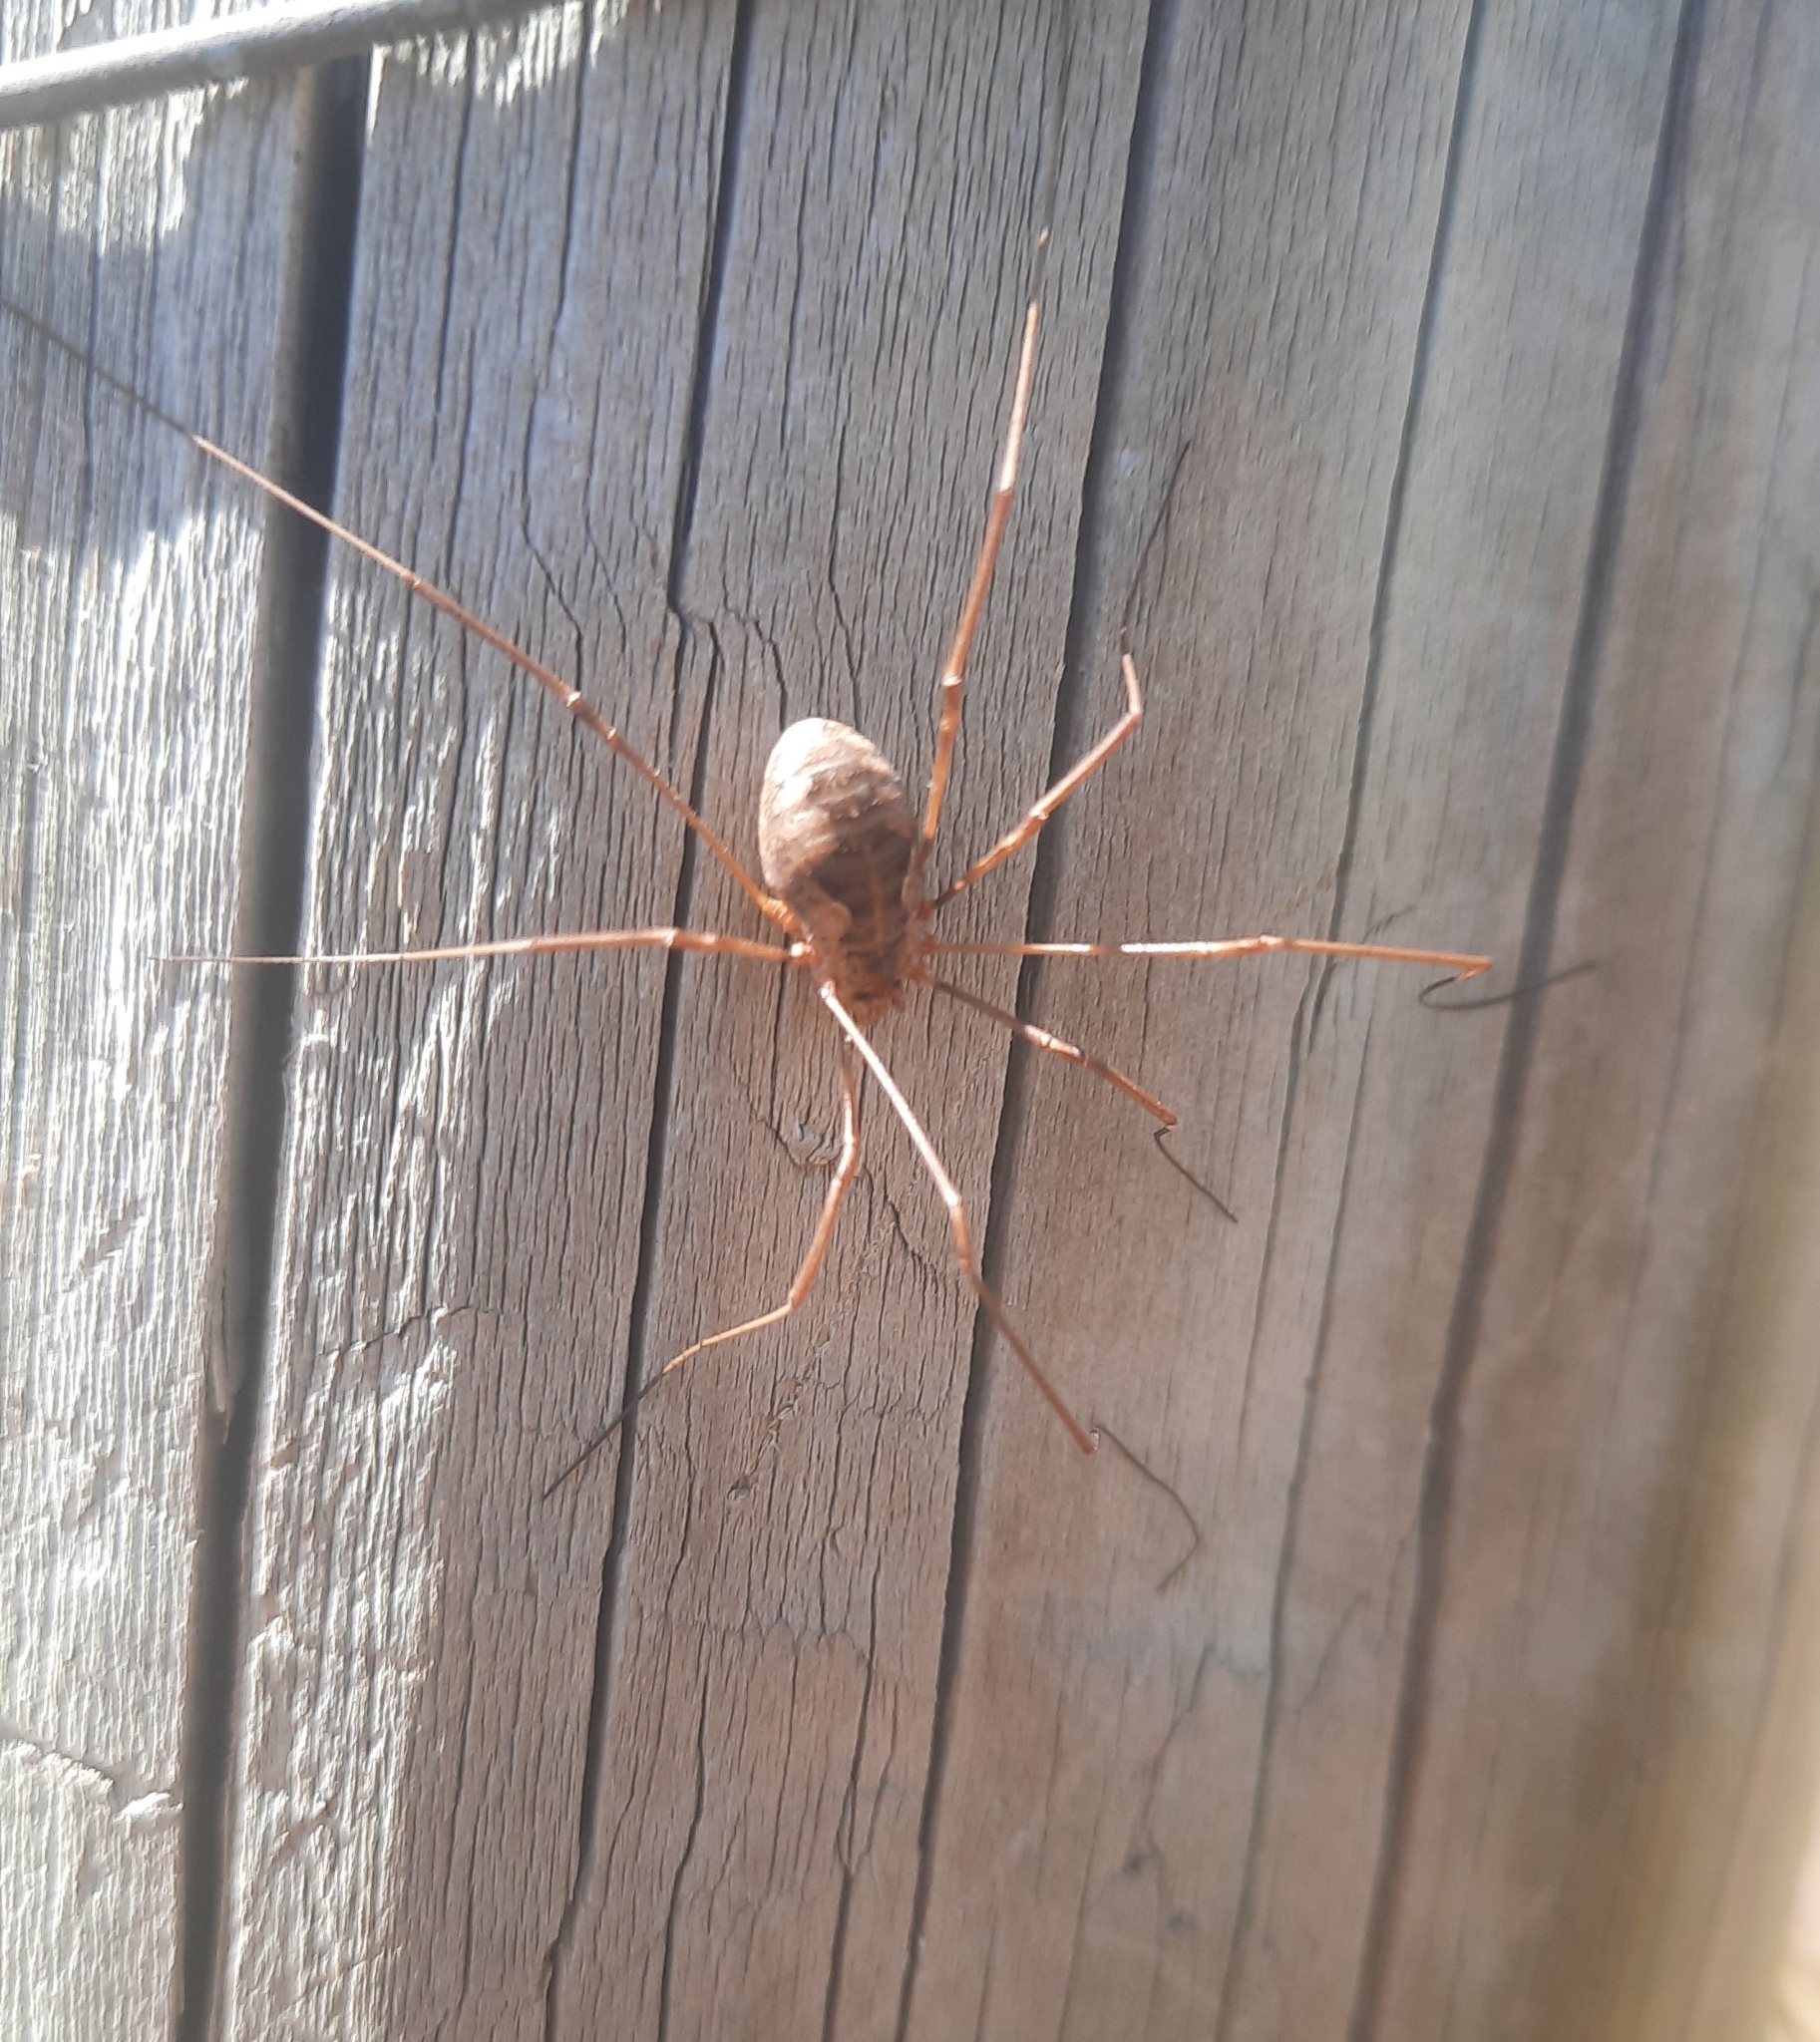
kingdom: Animalia
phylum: Arthropoda
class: Arachnida
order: Opiliones
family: Phalangiidae
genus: Phalangium
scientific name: Phalangium opilio
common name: Daddy longleg
